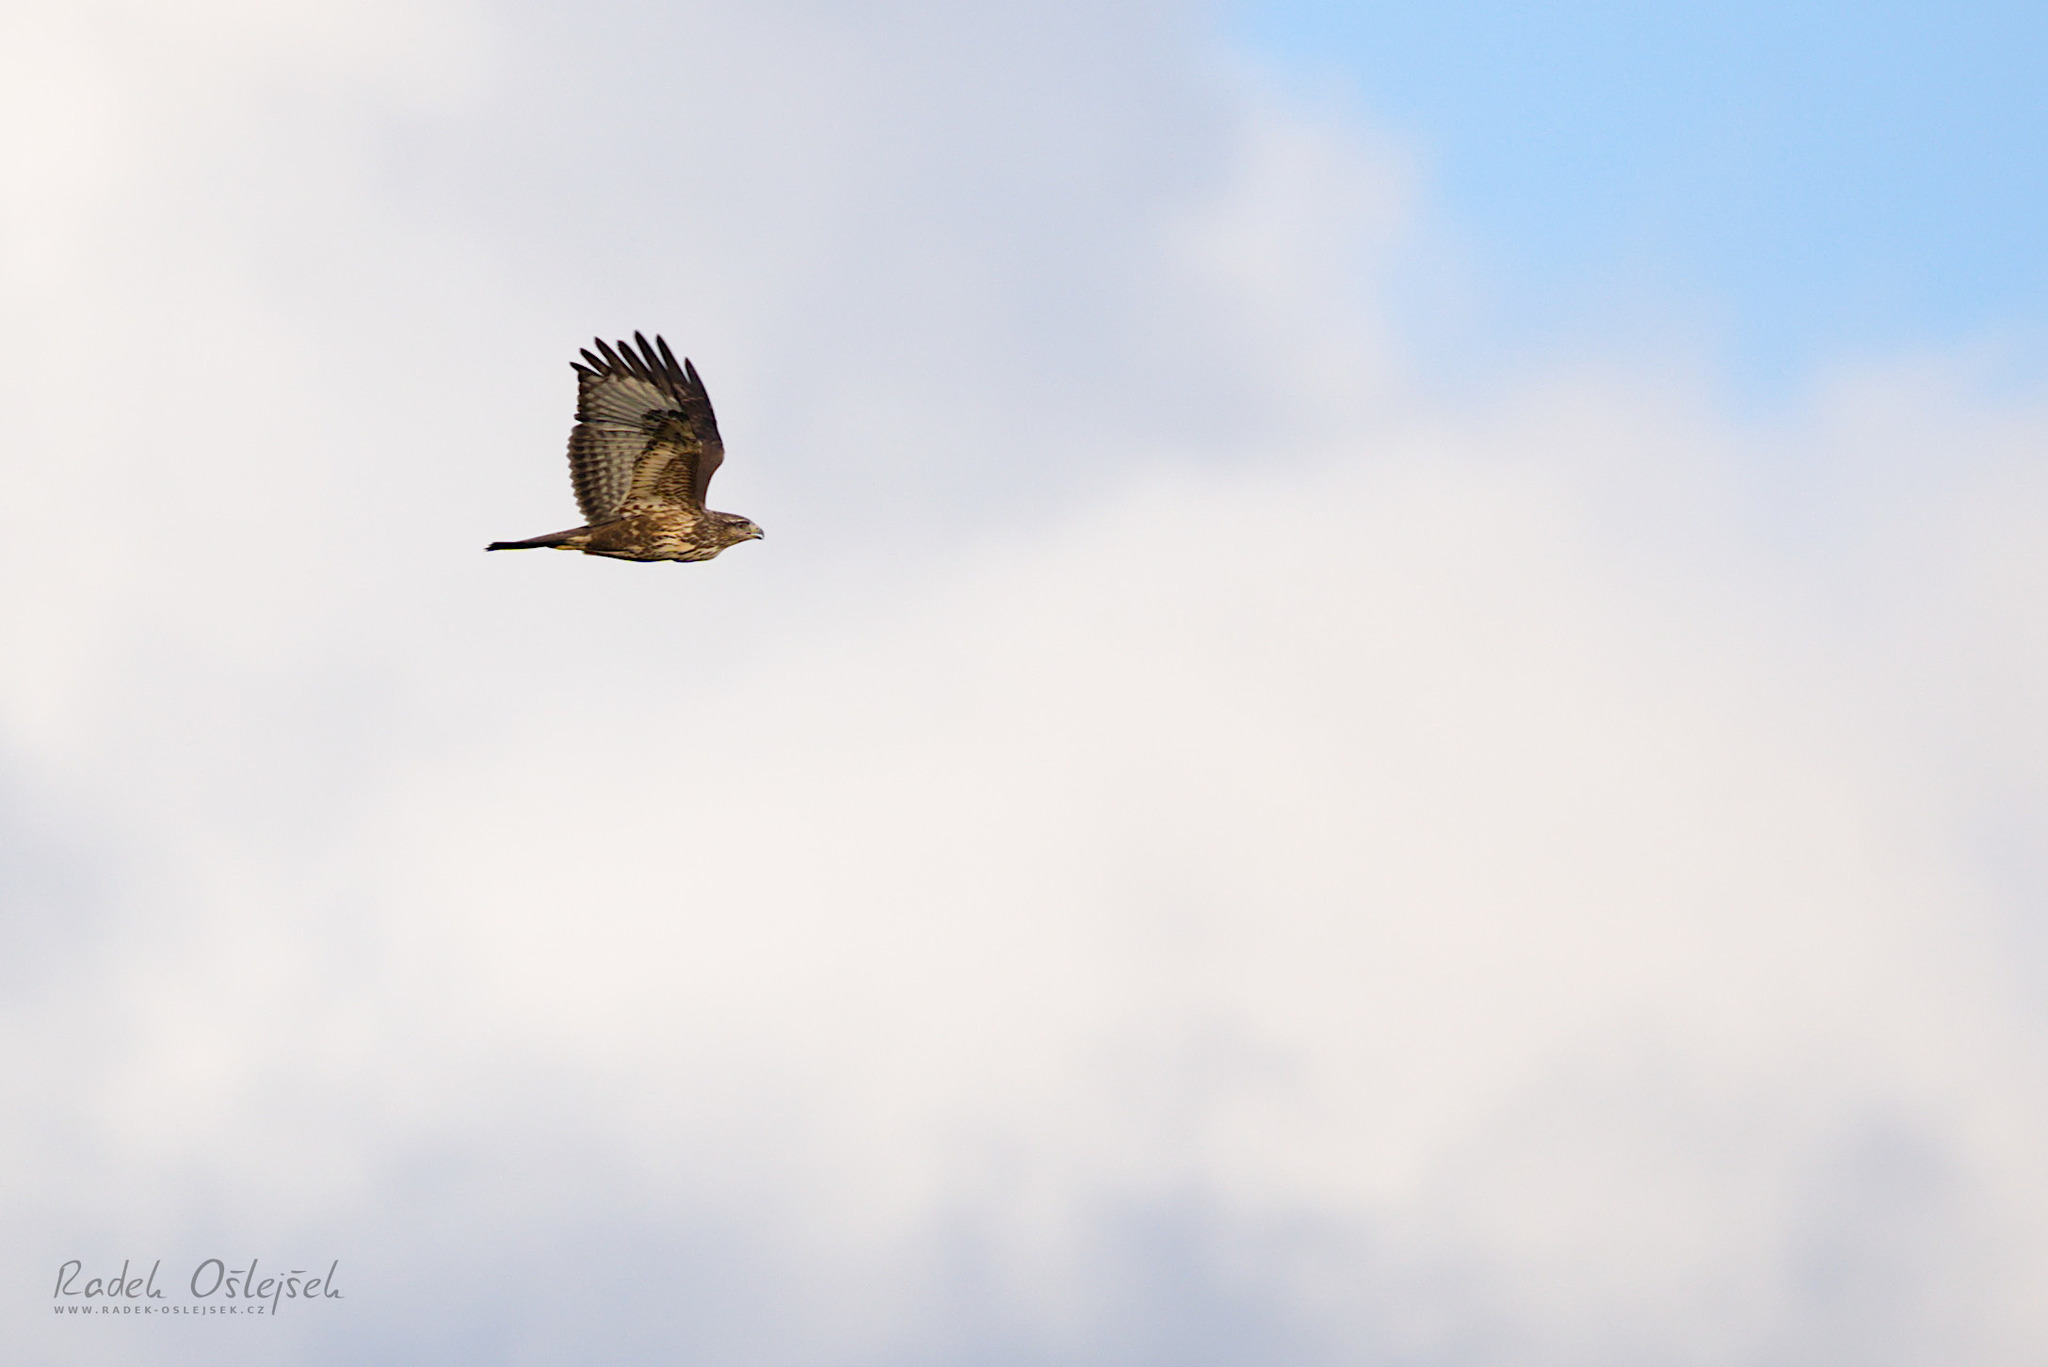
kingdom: Animalia
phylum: Chordata
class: Aves
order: Accipitriformes
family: Accipitridae
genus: Buteo
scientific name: Buteo buteo
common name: Common buzzard
